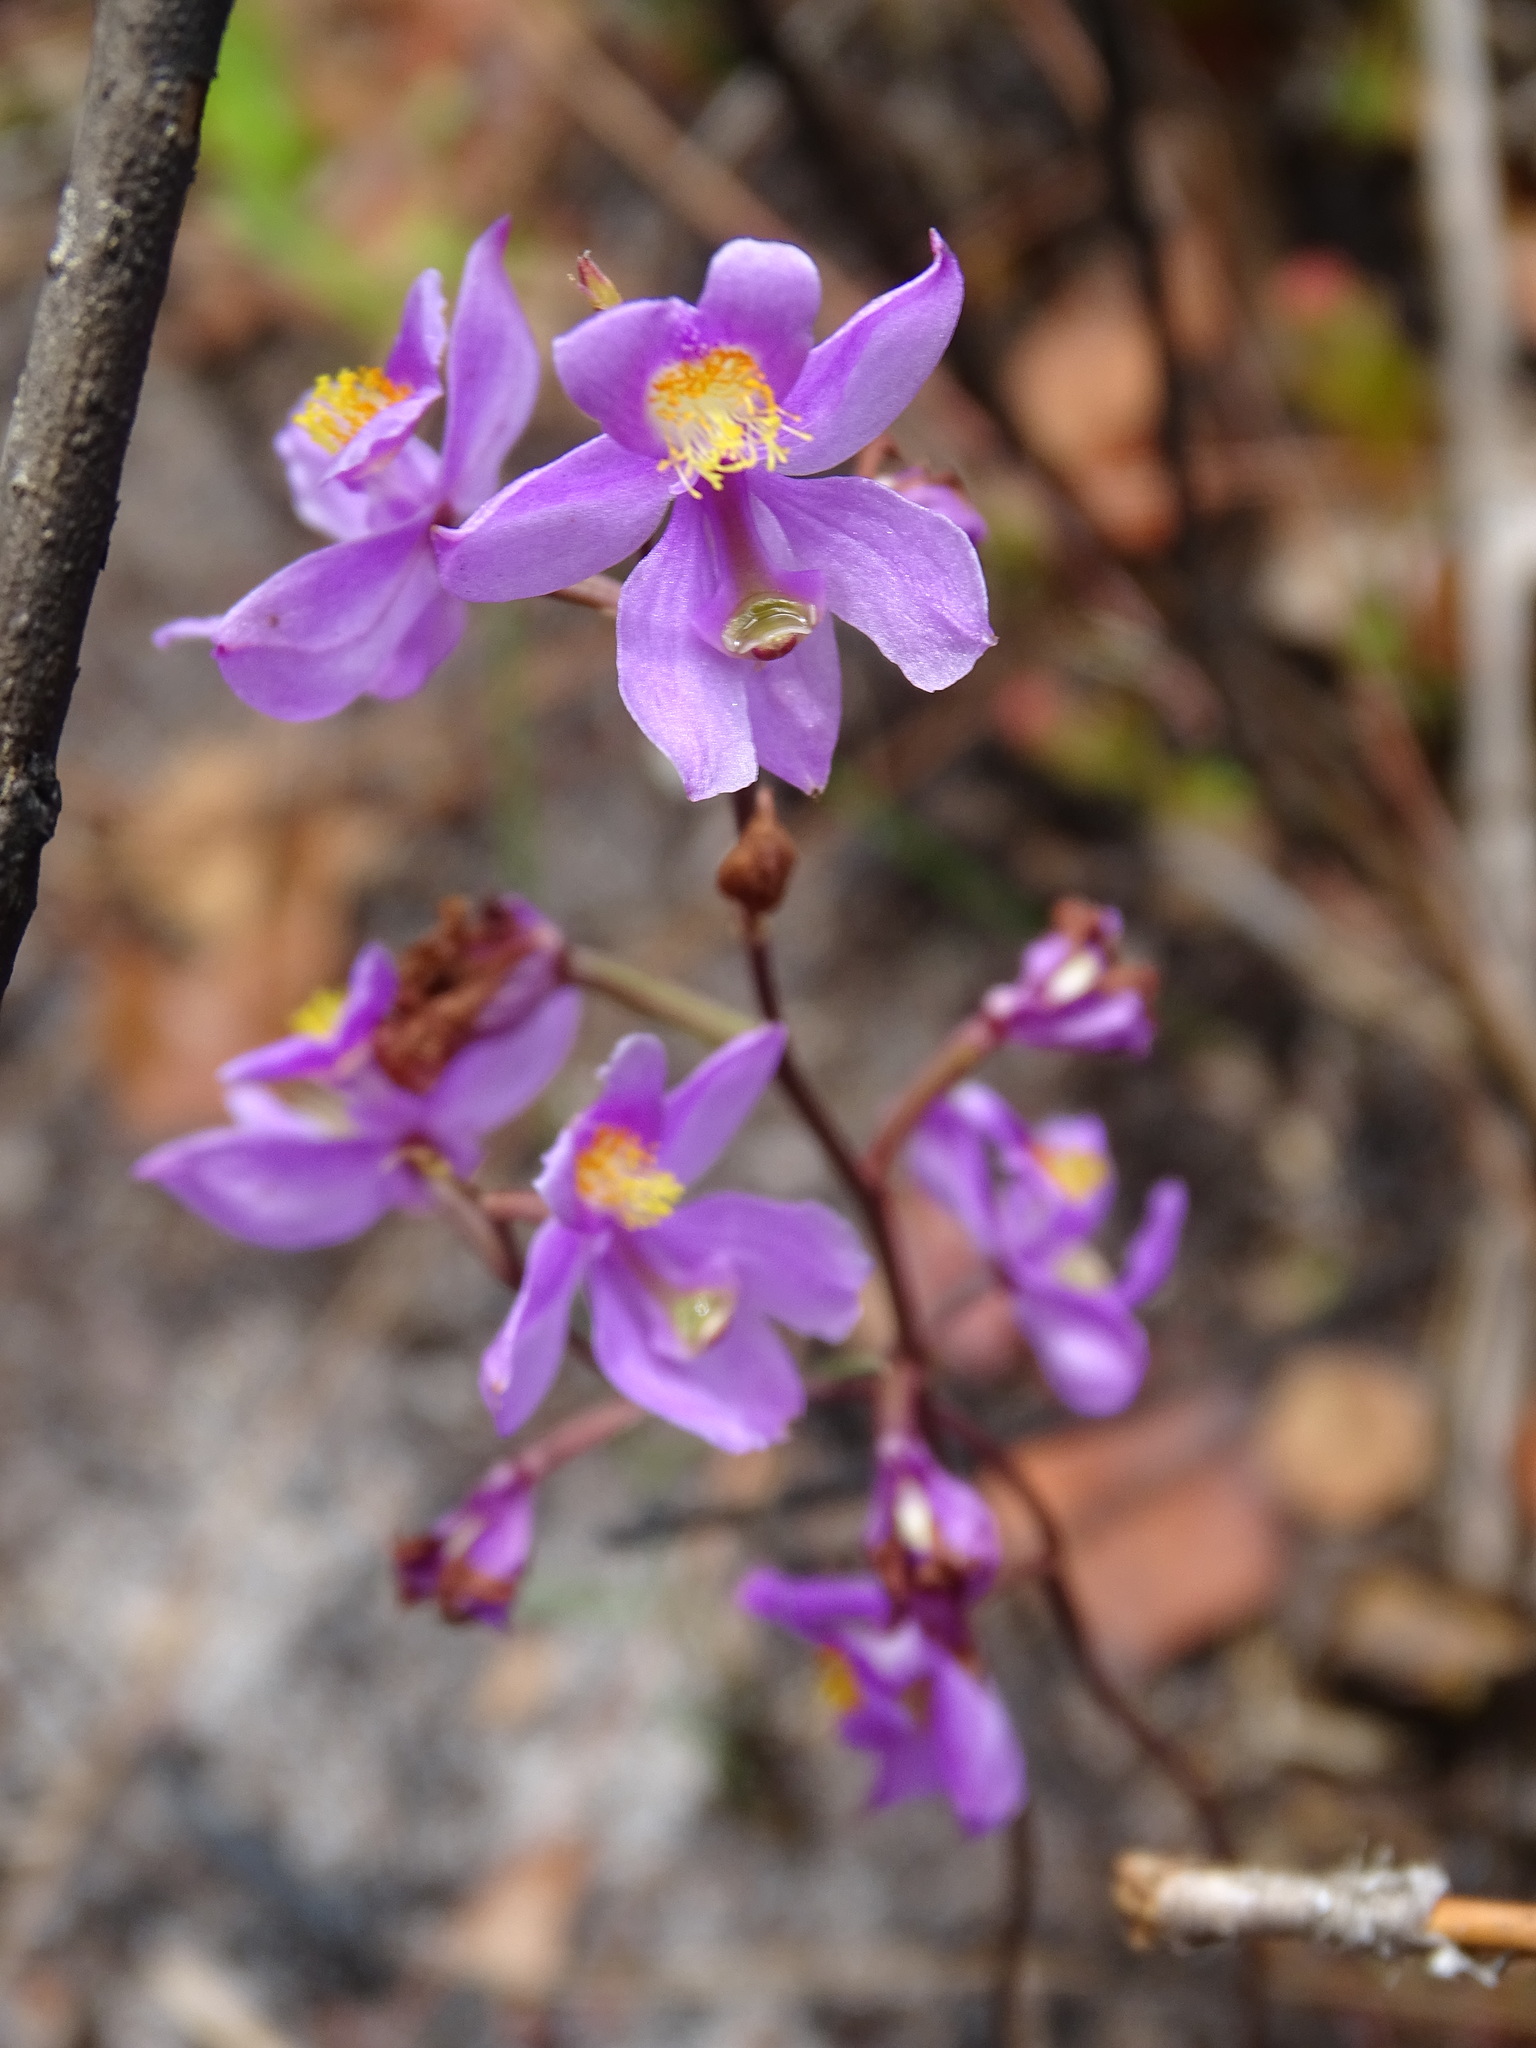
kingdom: Plantae
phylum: Tracheophyta
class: Liliopsida
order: Asparagales
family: Orchidaceae
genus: Calopogon
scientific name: Calopogon multiflorus
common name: Many-flowered grass-pink orchid
